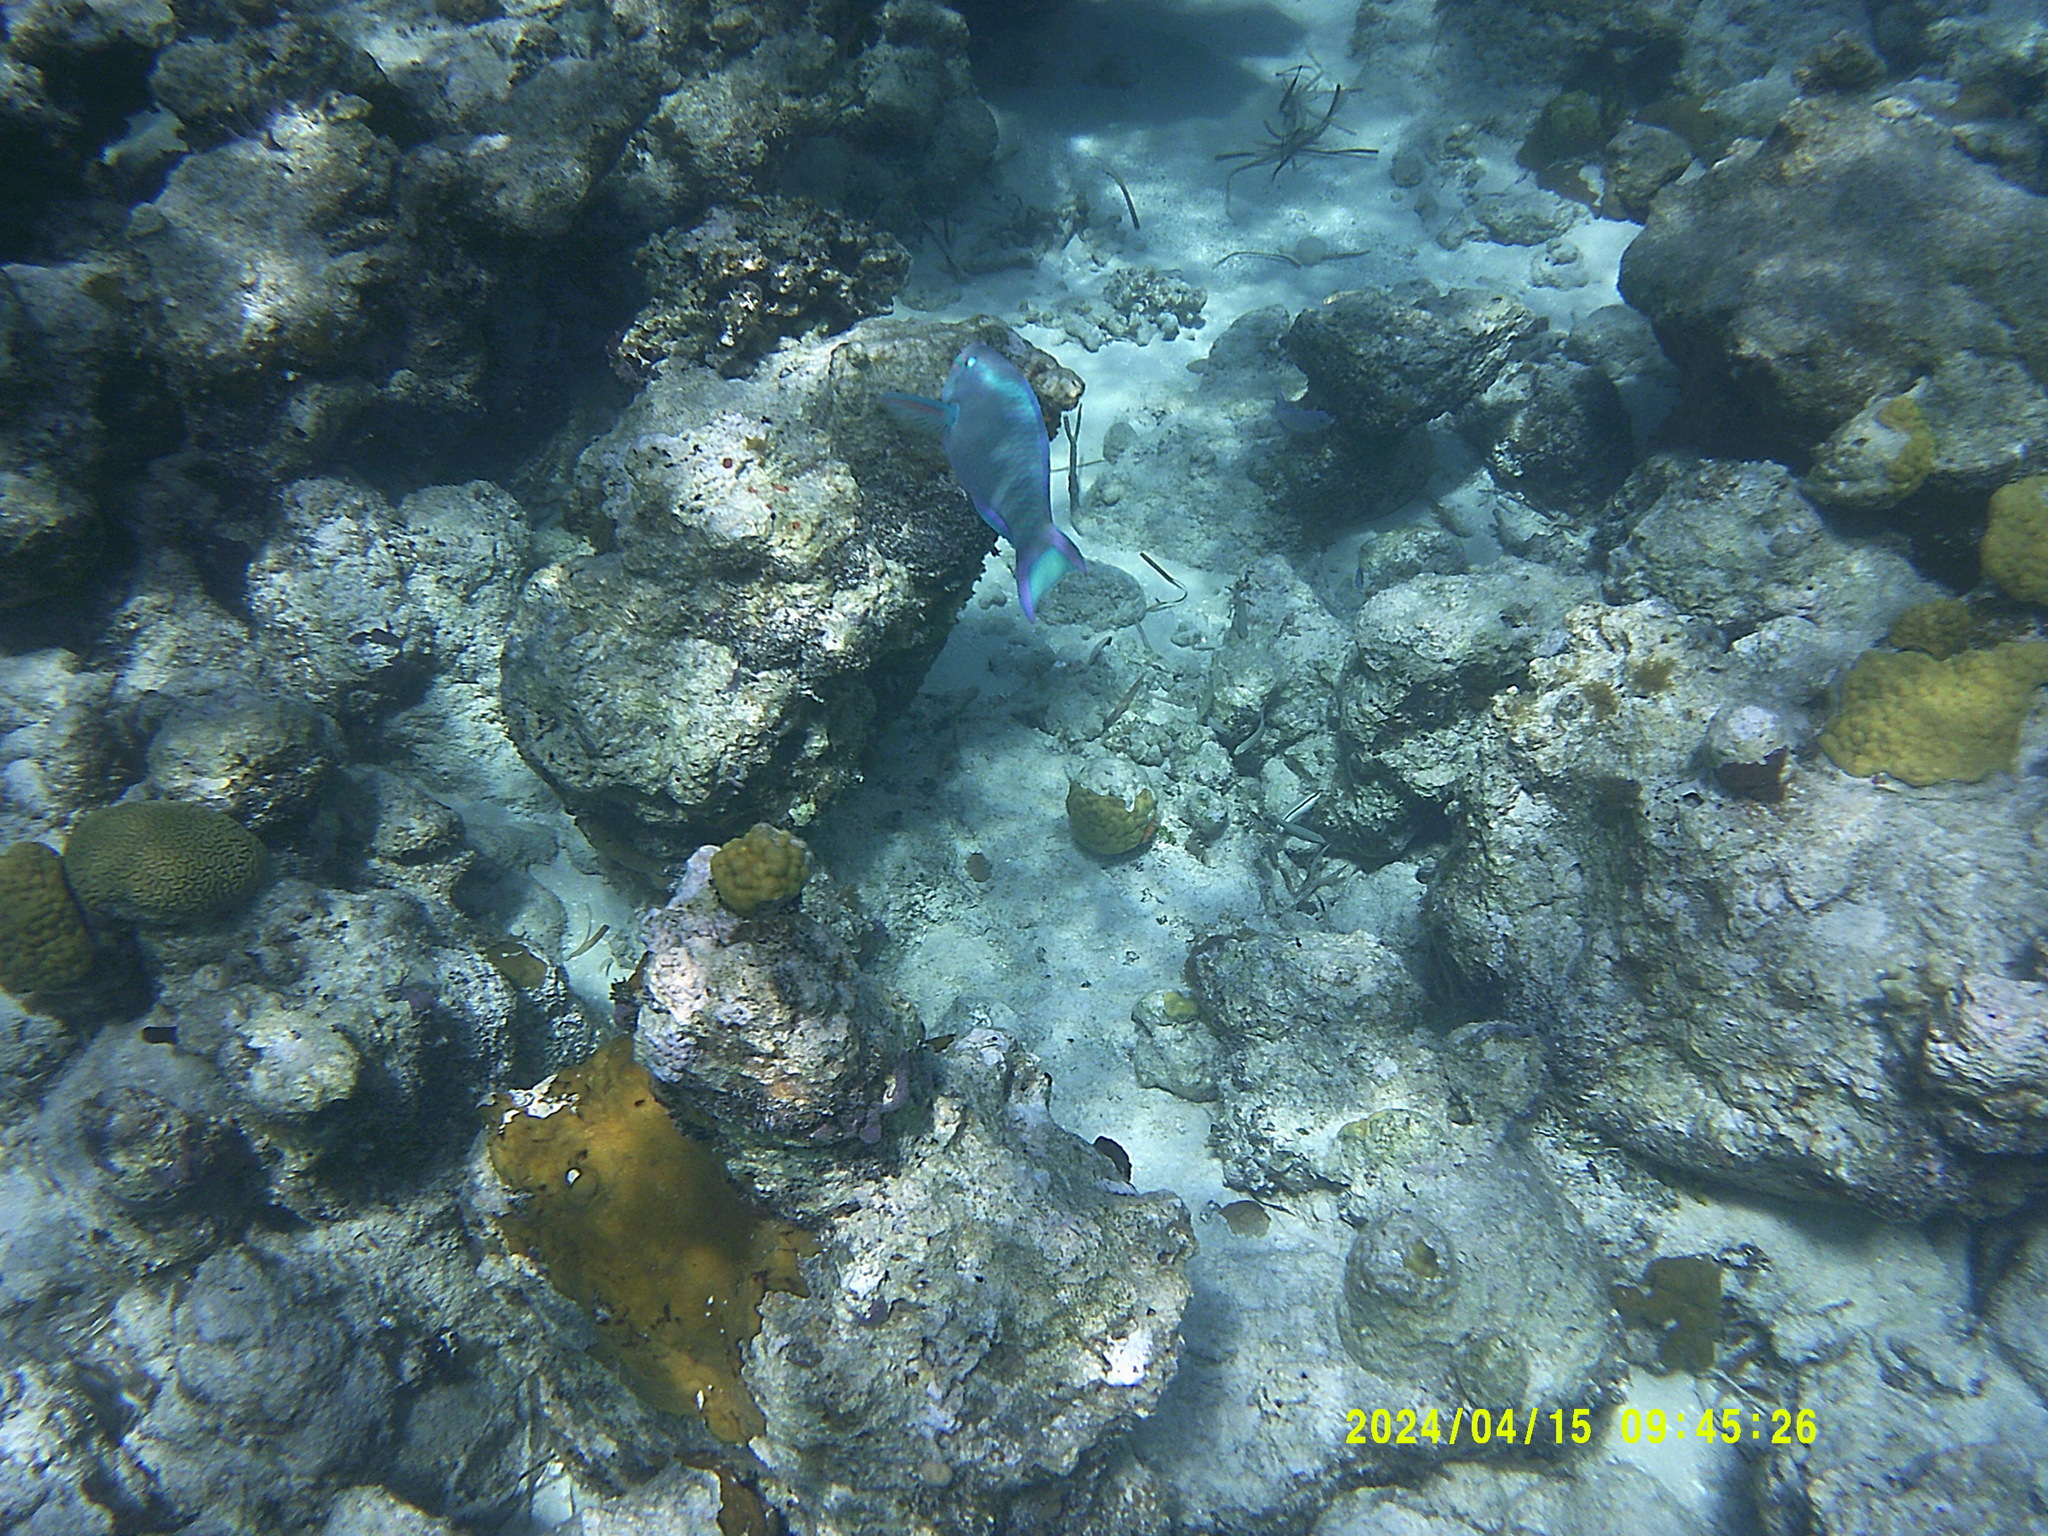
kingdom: Animalia
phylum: Chordata
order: Perciformes
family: Scaridae
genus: Scarus
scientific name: Scarus vetula
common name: Queen parrotfish
